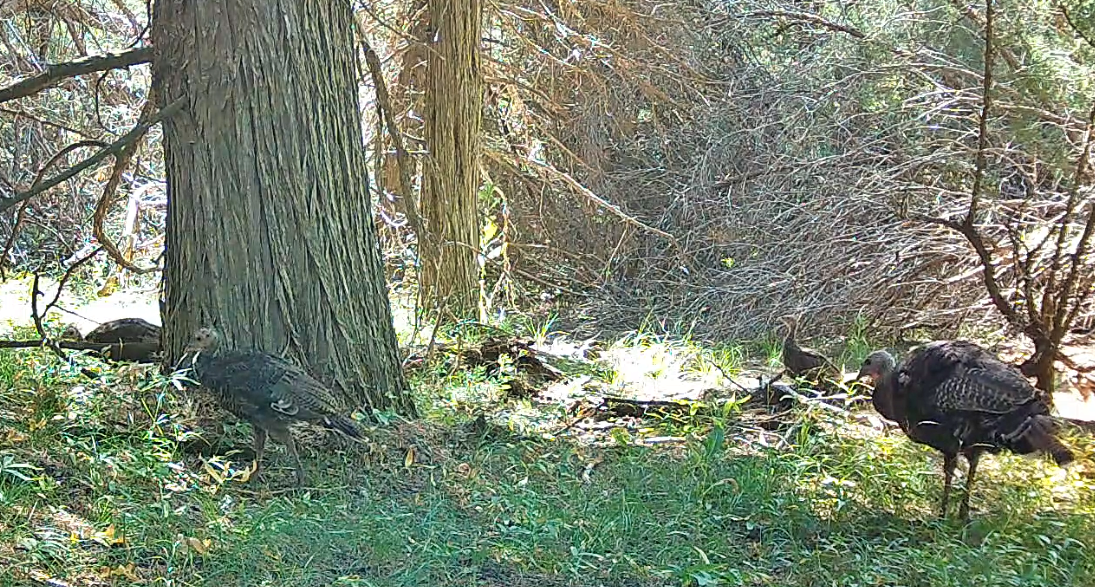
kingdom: Animalia
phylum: Chordata
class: Aves
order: Galliformes
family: Phasianidae
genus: Meleagris
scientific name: Meleagris gallopavo
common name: Wild turkey
